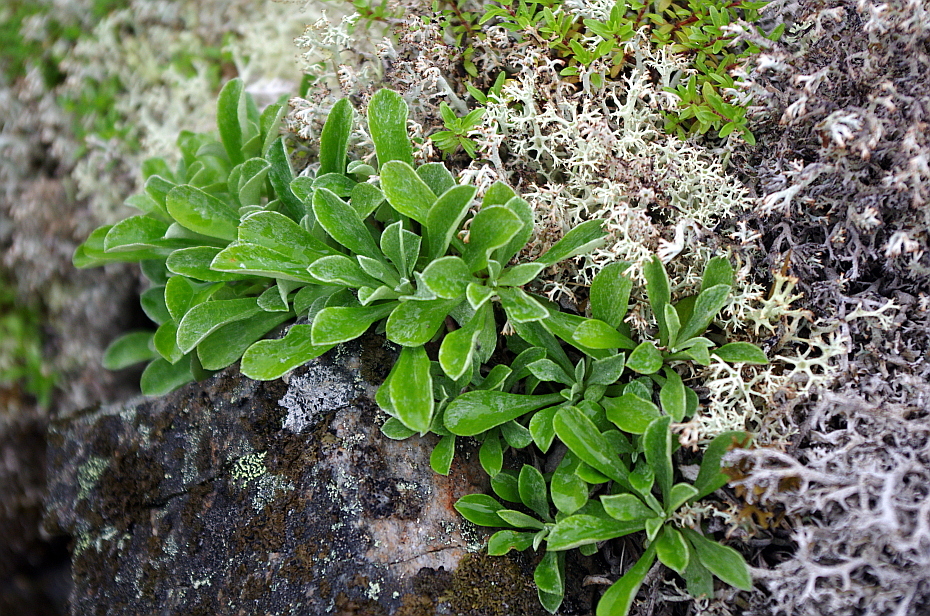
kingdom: Plantae
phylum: Tracheophyta
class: Magnoliopsida
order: Asterales
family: Asteraceae
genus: Antennaria
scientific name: Antennaria dioica
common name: Mountain everlasting
